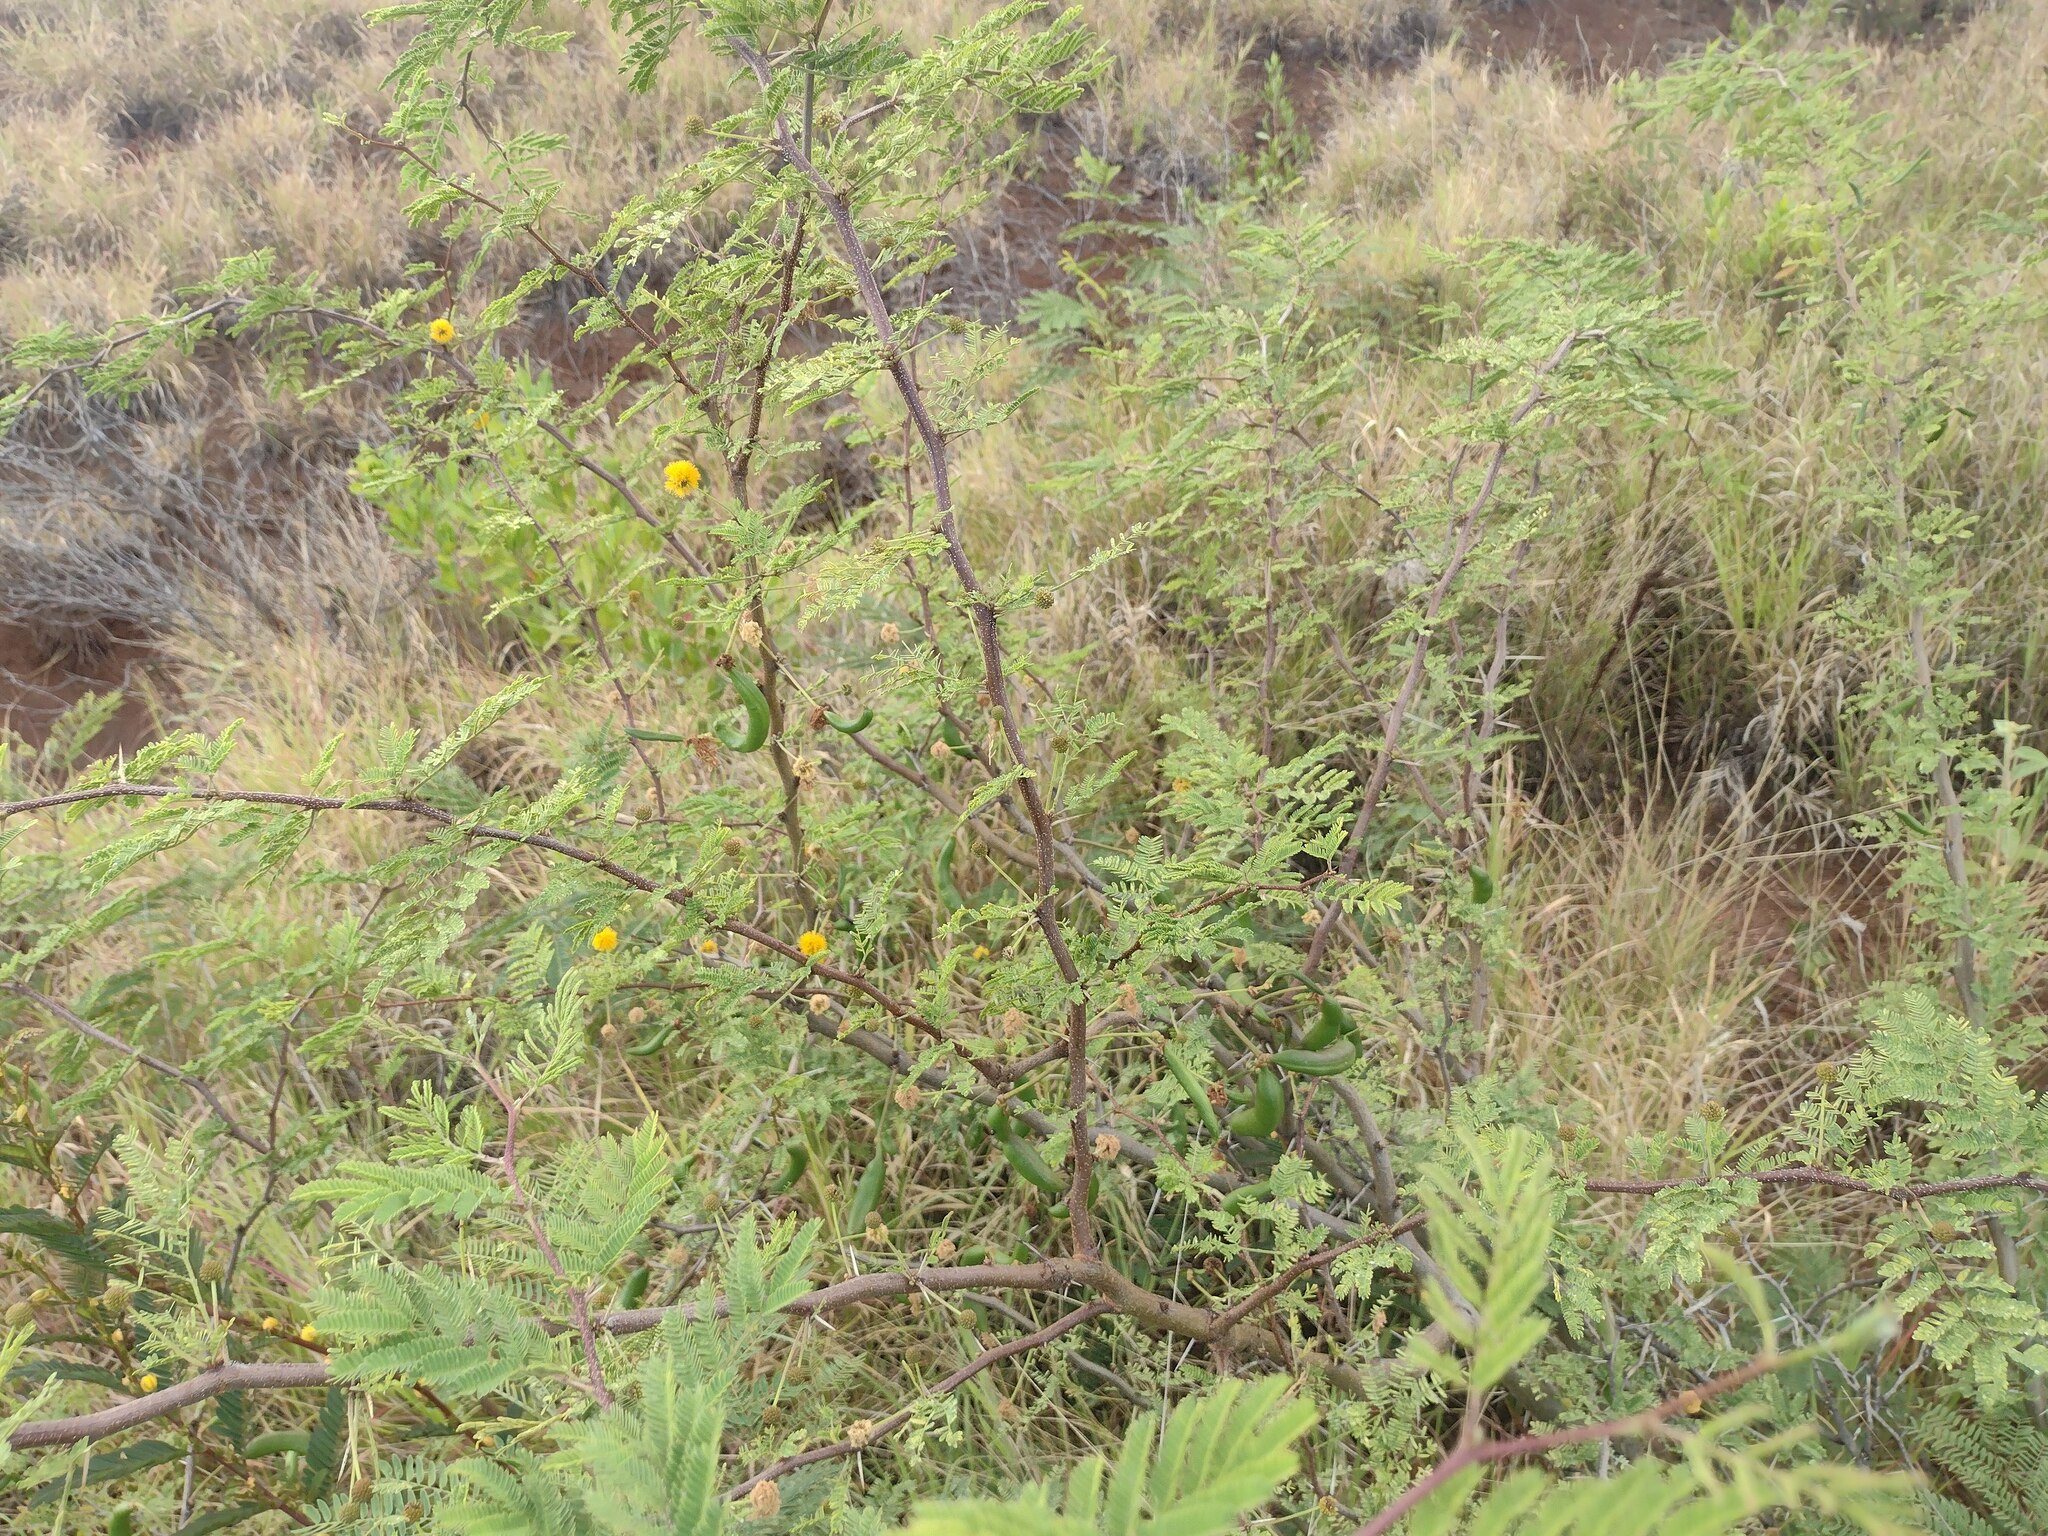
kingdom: Plantae
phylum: Tracheophyta
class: Magnoliopsida
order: Fabales
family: Fabaceae
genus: Vachellia
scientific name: Vachellia farnesiana
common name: Sweet acacia
